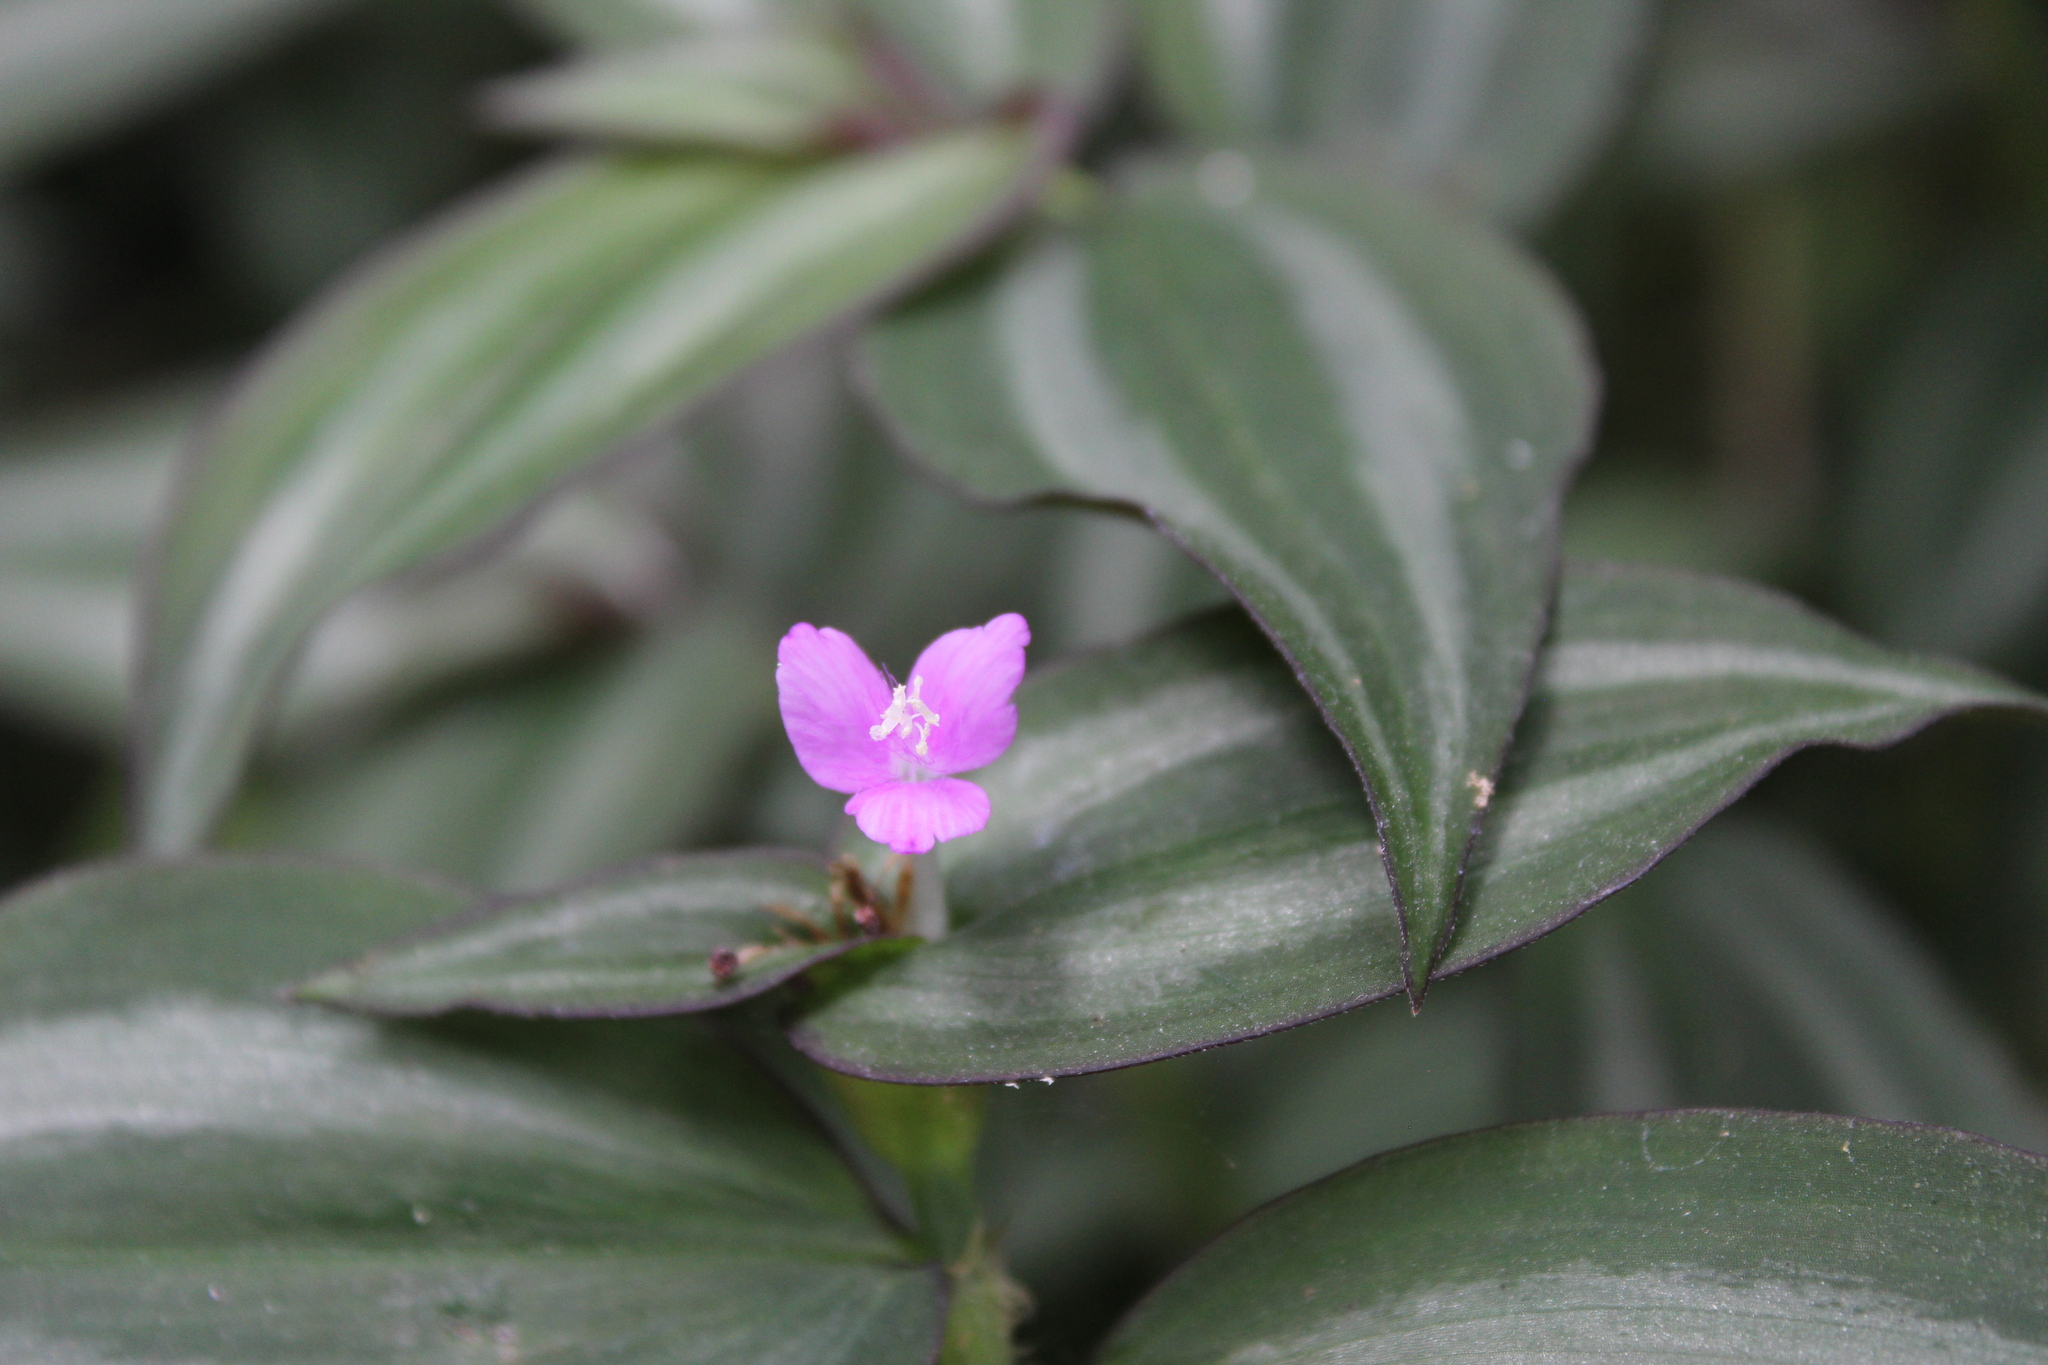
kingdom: Plantae
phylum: Tracheophyta
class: Liliopsida
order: Commelinales
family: Commelinaceae
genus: Tradescantia
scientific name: Tradescantia zebrina
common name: Inchplant
